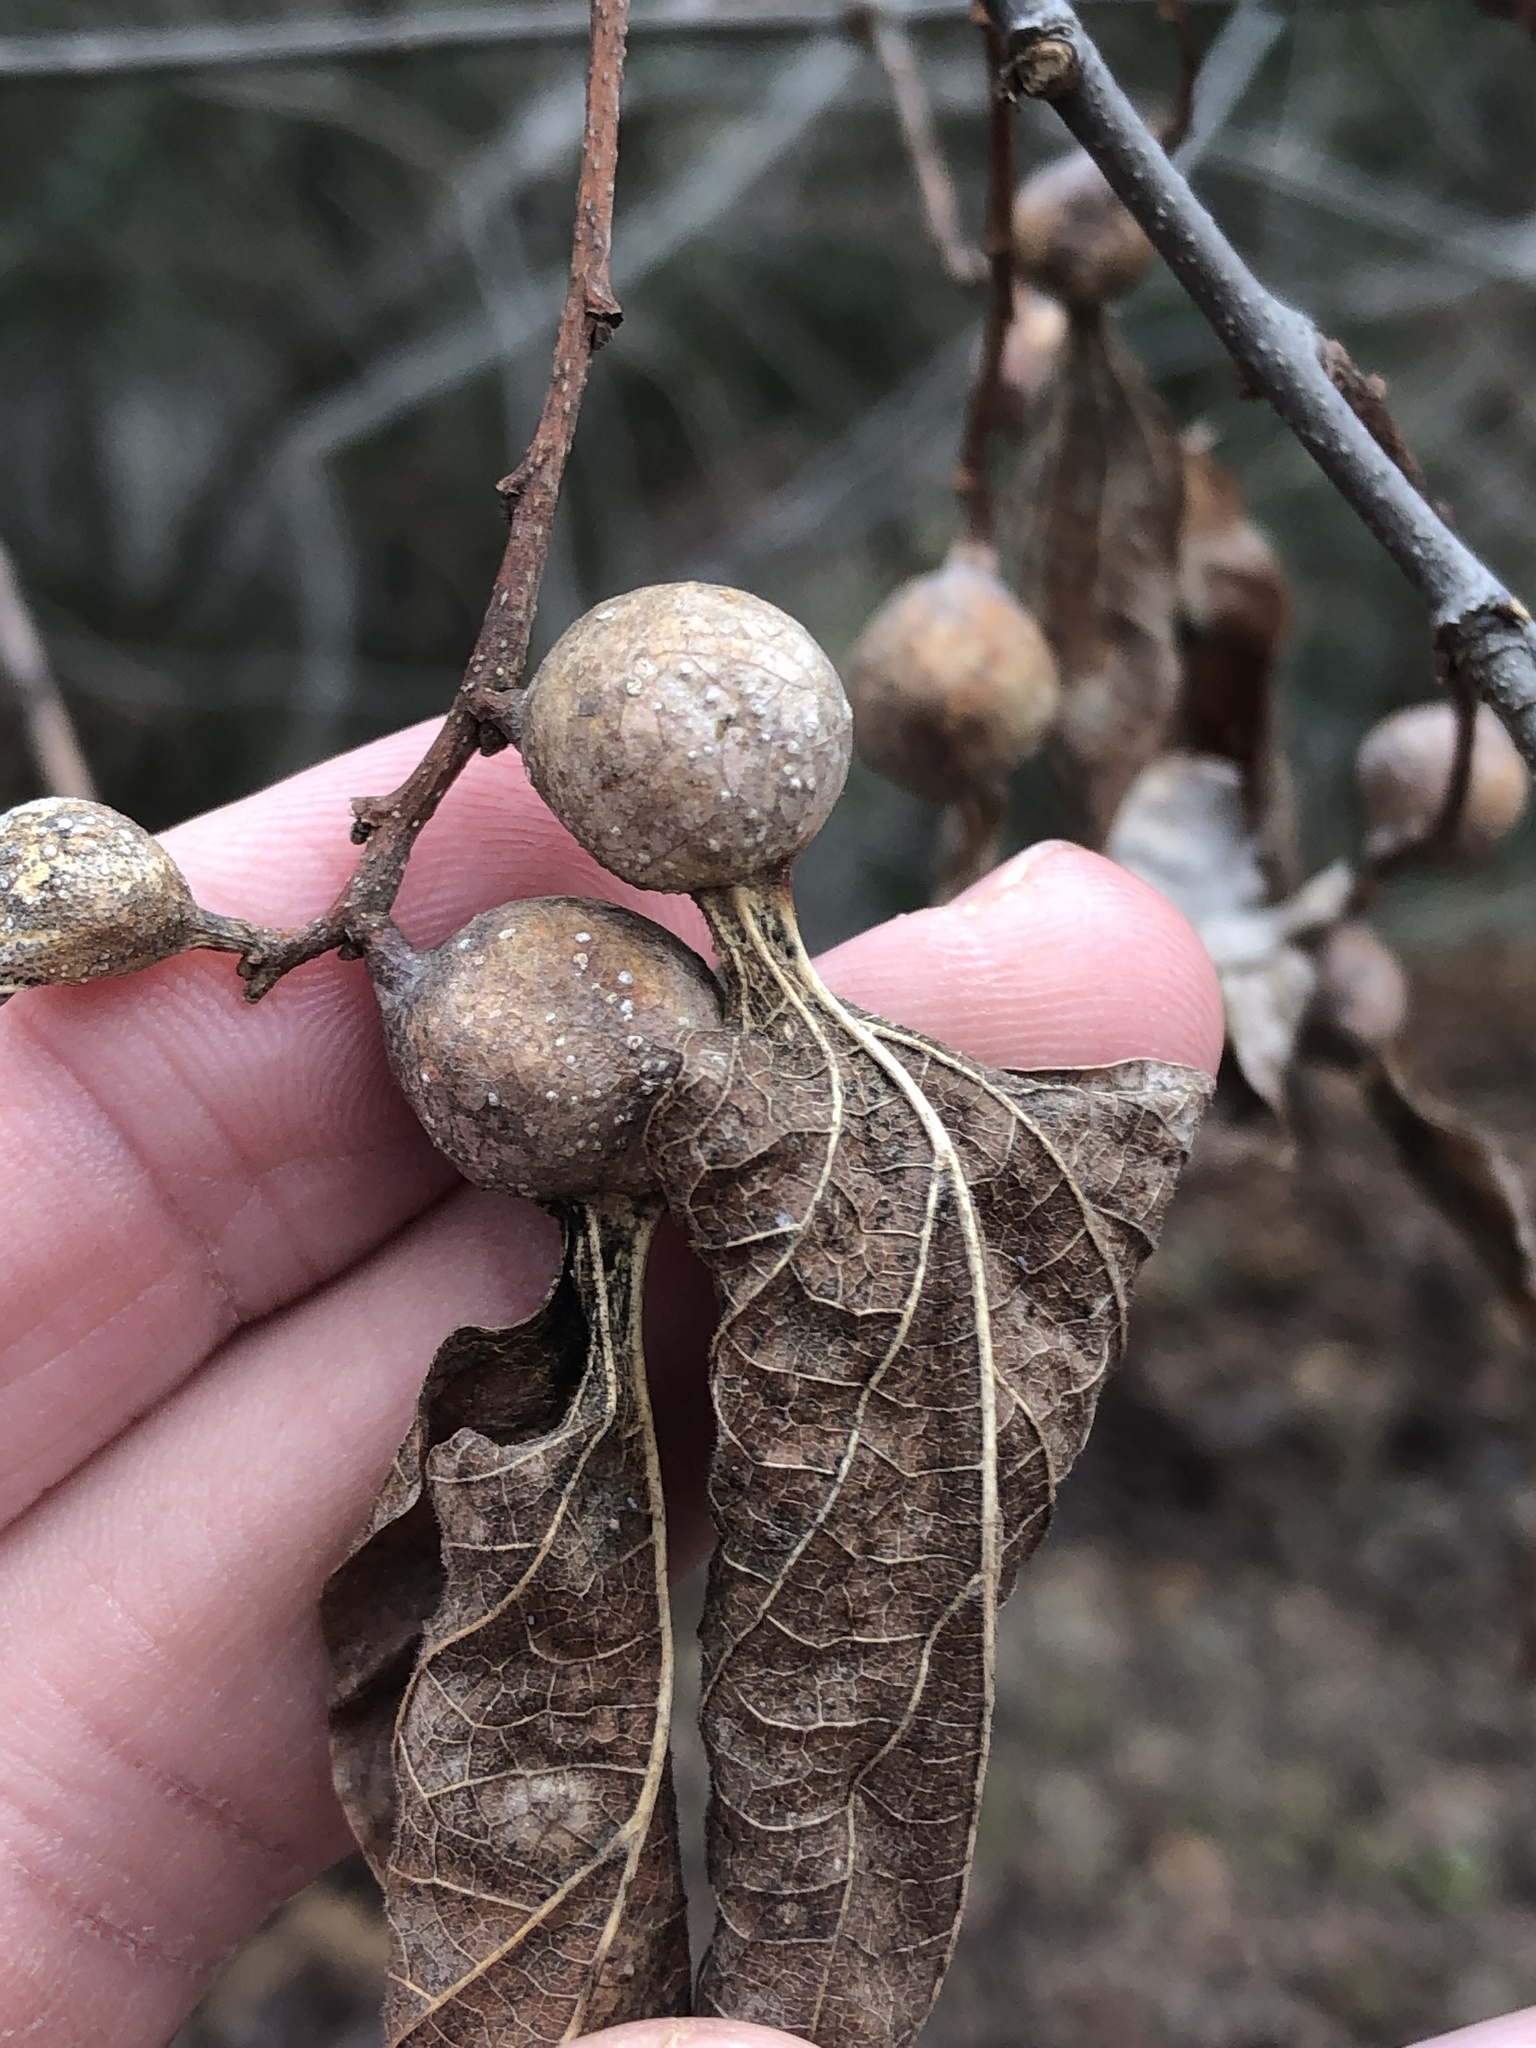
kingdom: Animalia
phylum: Arthropoda
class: Insecta
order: Hemiptera
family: Aphalaridae
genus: Pachypsylla
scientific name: Pachypsylla venusta
